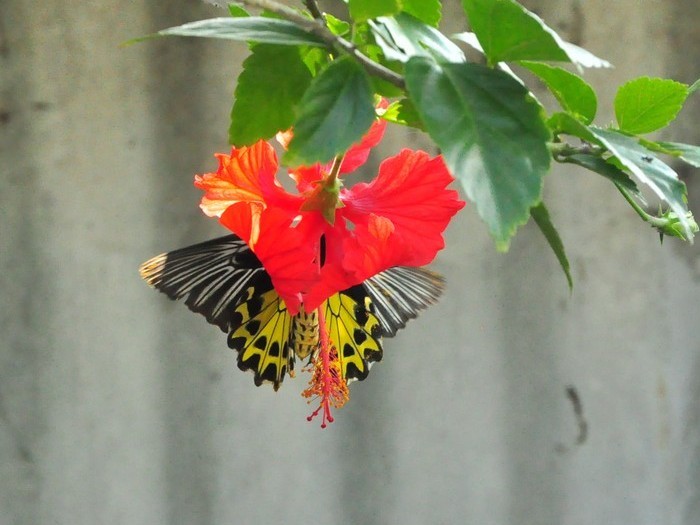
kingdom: Animalia
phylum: Arthropoda
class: Insecta
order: Lepidoptera
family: Papilionidae
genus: Troides
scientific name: Troides helena
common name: Common birdwing
